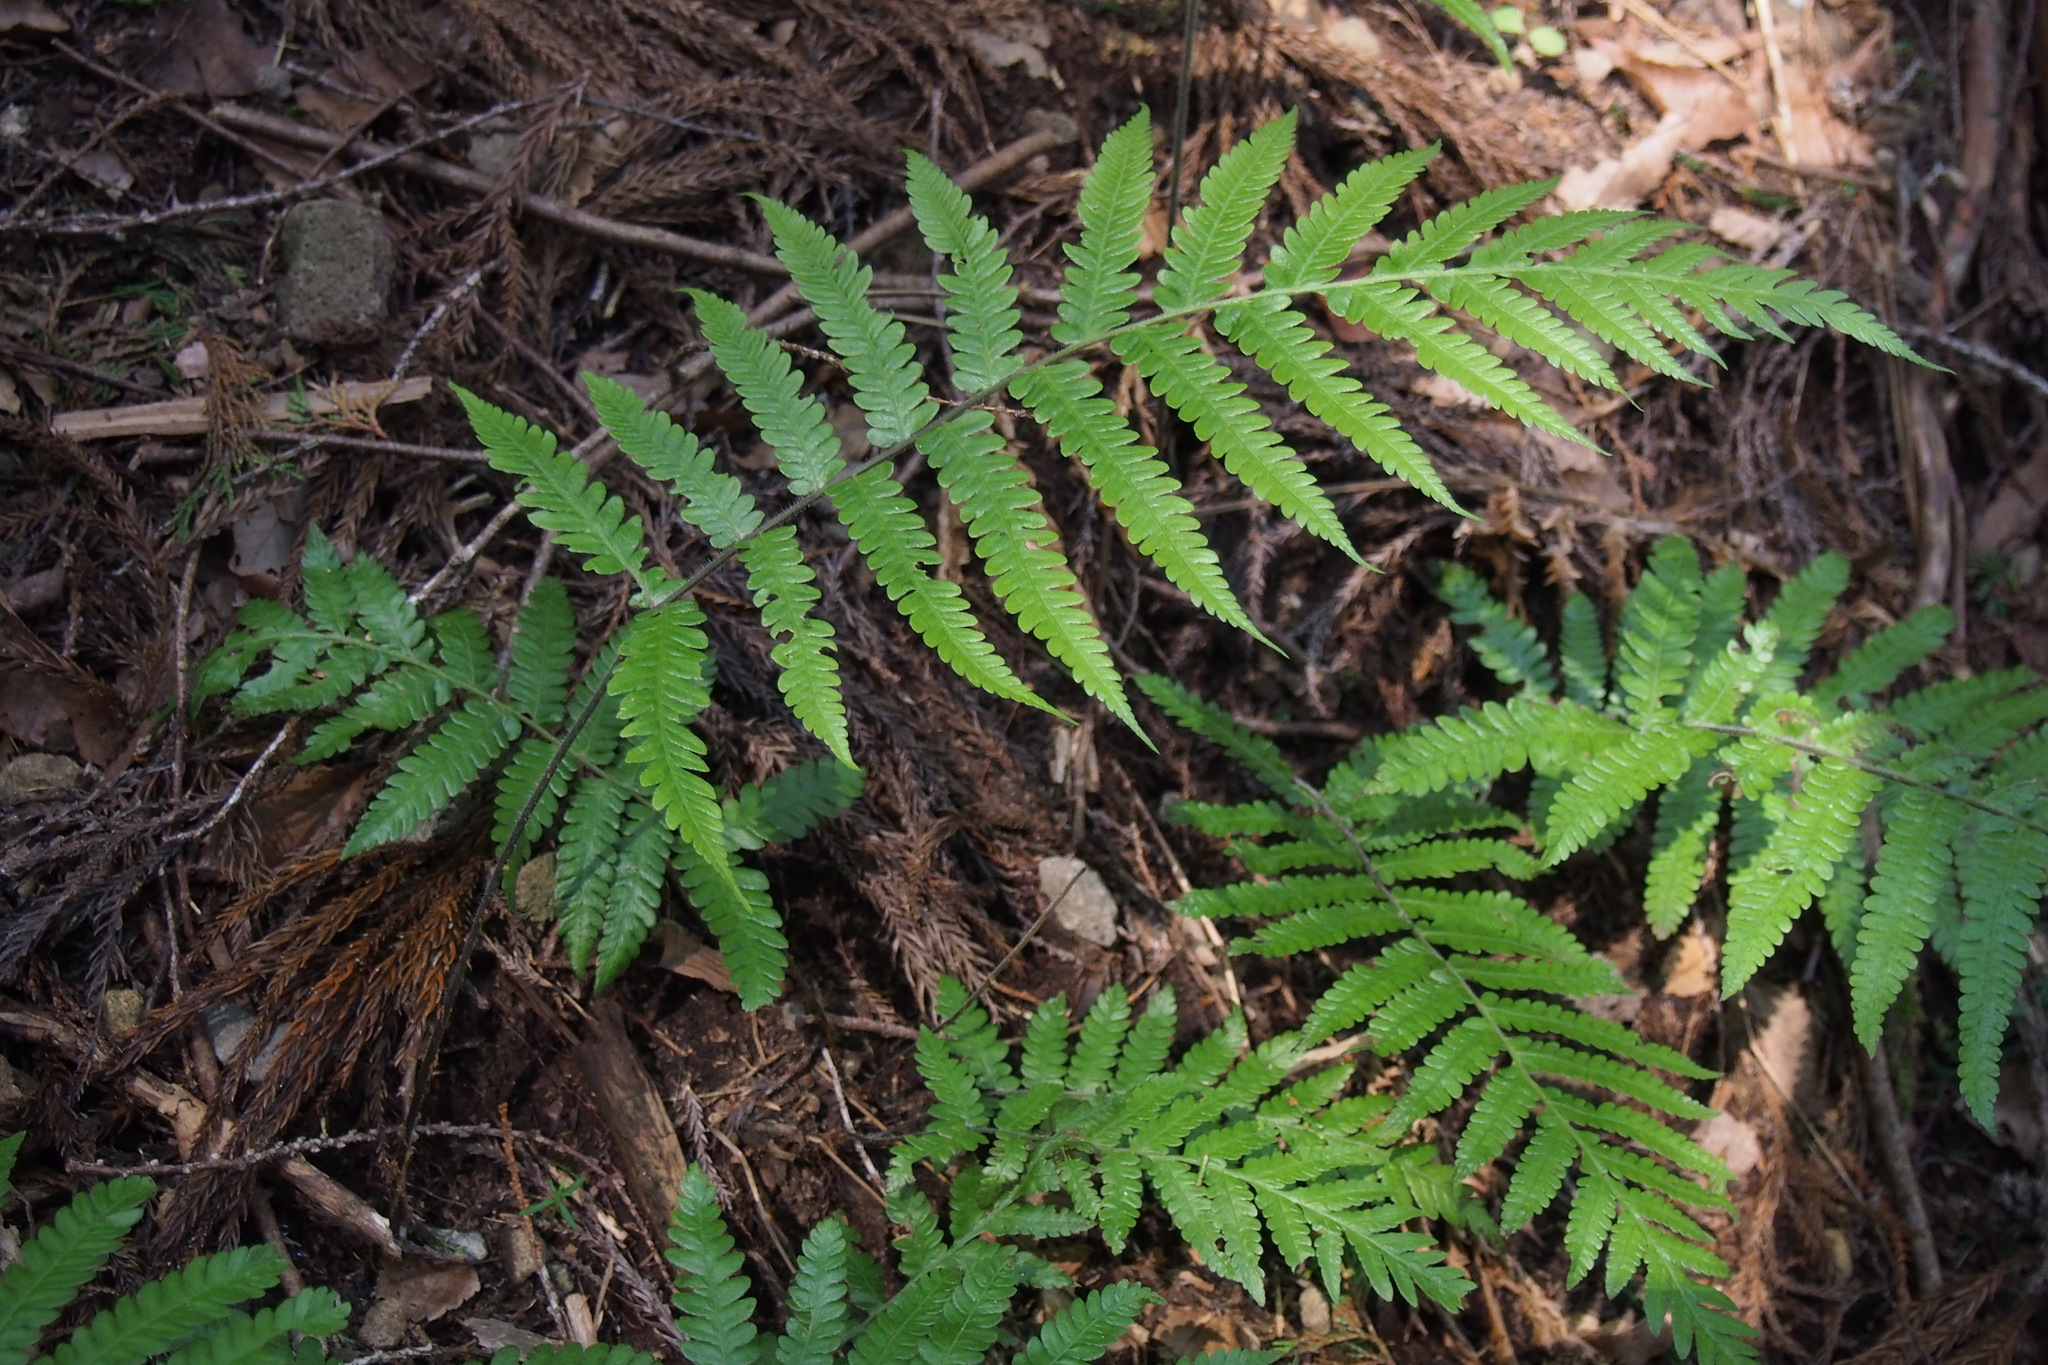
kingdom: Plantae
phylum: Tracheophyta
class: Polypodiopsida
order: Polypodiales
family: Thelypteridaceae
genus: Leptogramma
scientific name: Leptogramma mollissima
